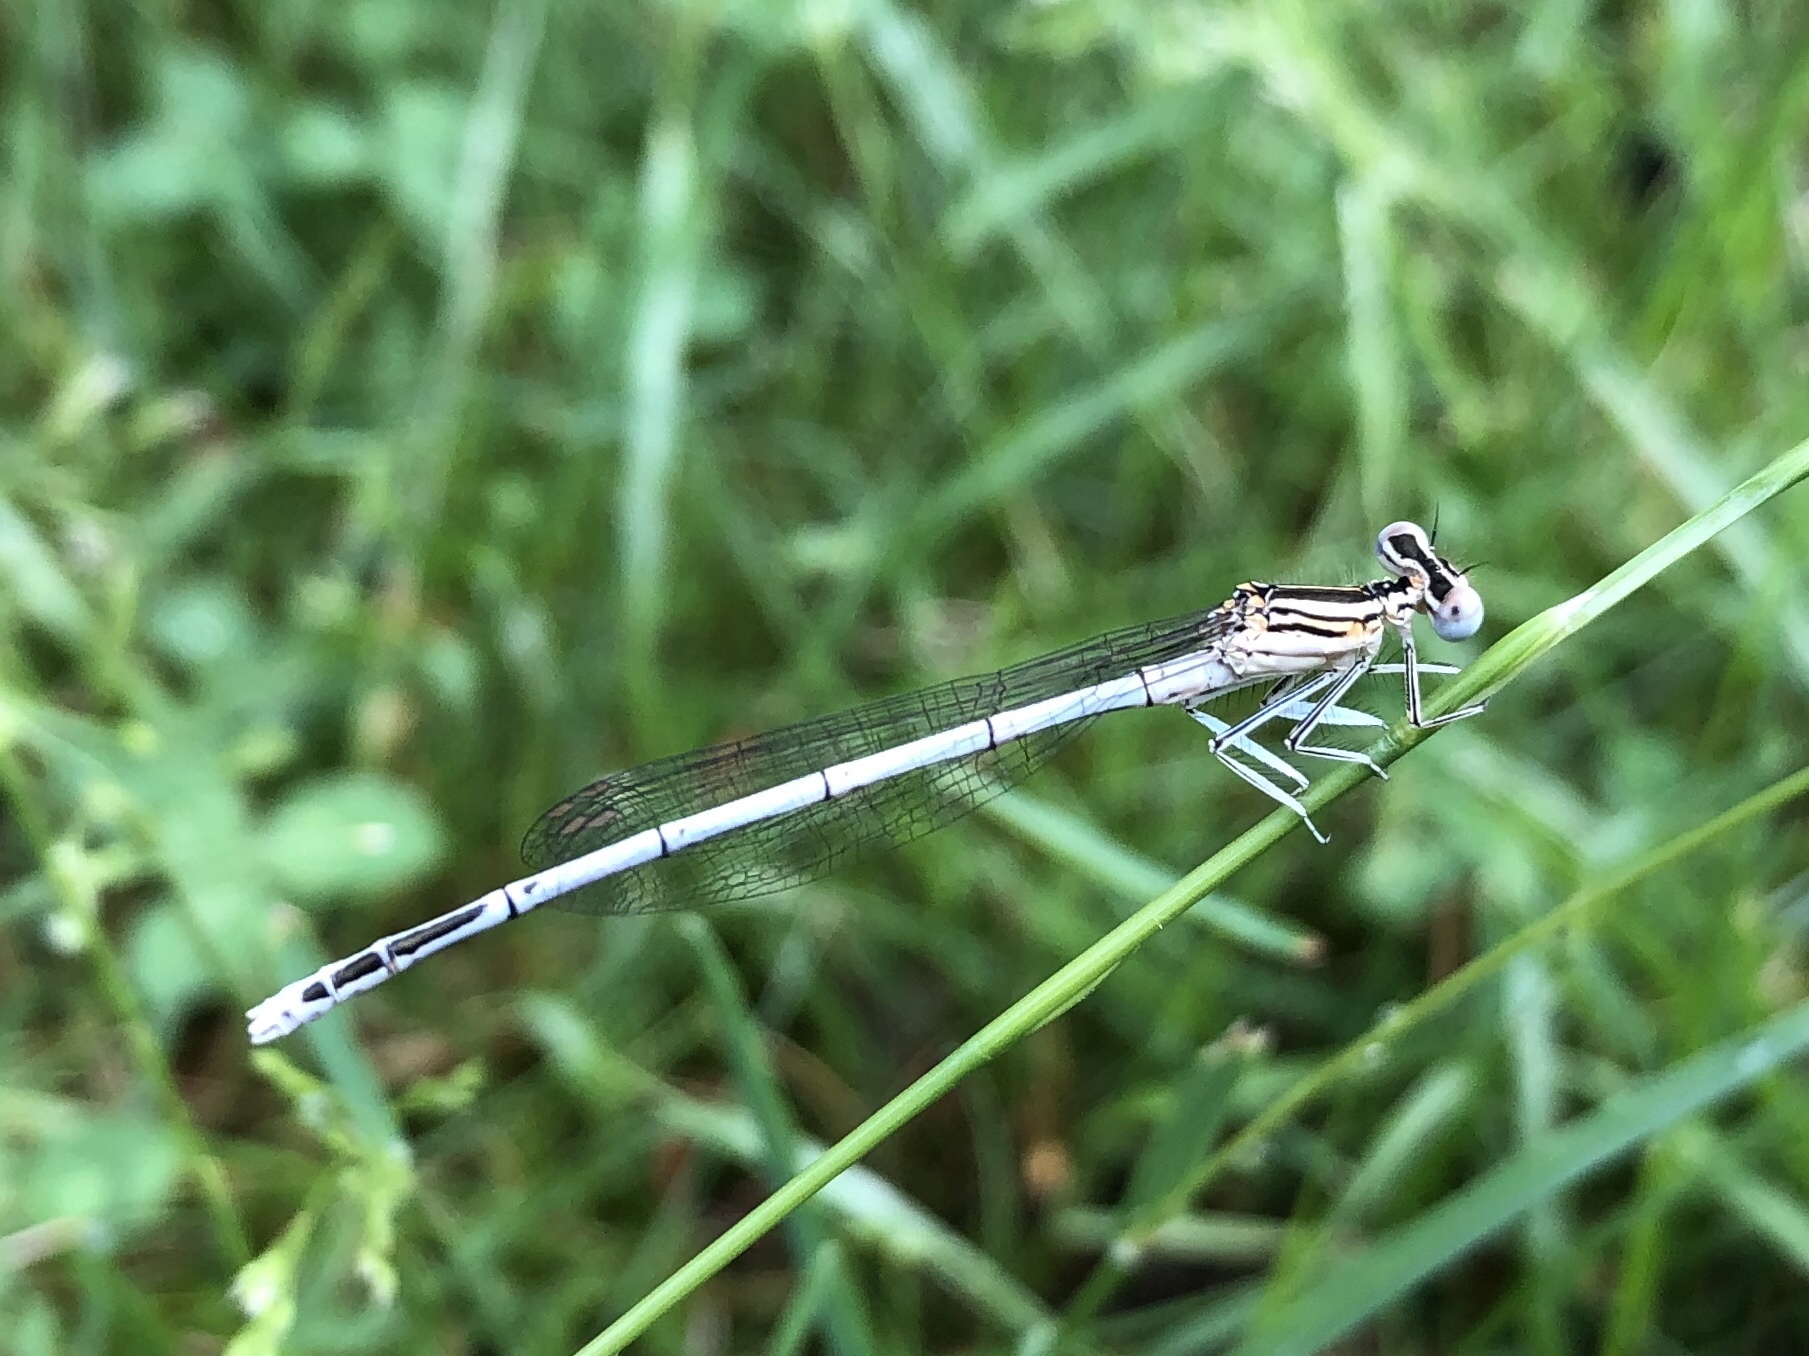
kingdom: Animalia
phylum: Arthropoda
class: Insecta
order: Odonata
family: Platycnemididae
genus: Platycnemis
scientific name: Platycnemis pennipes
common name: White-legged damselfly
